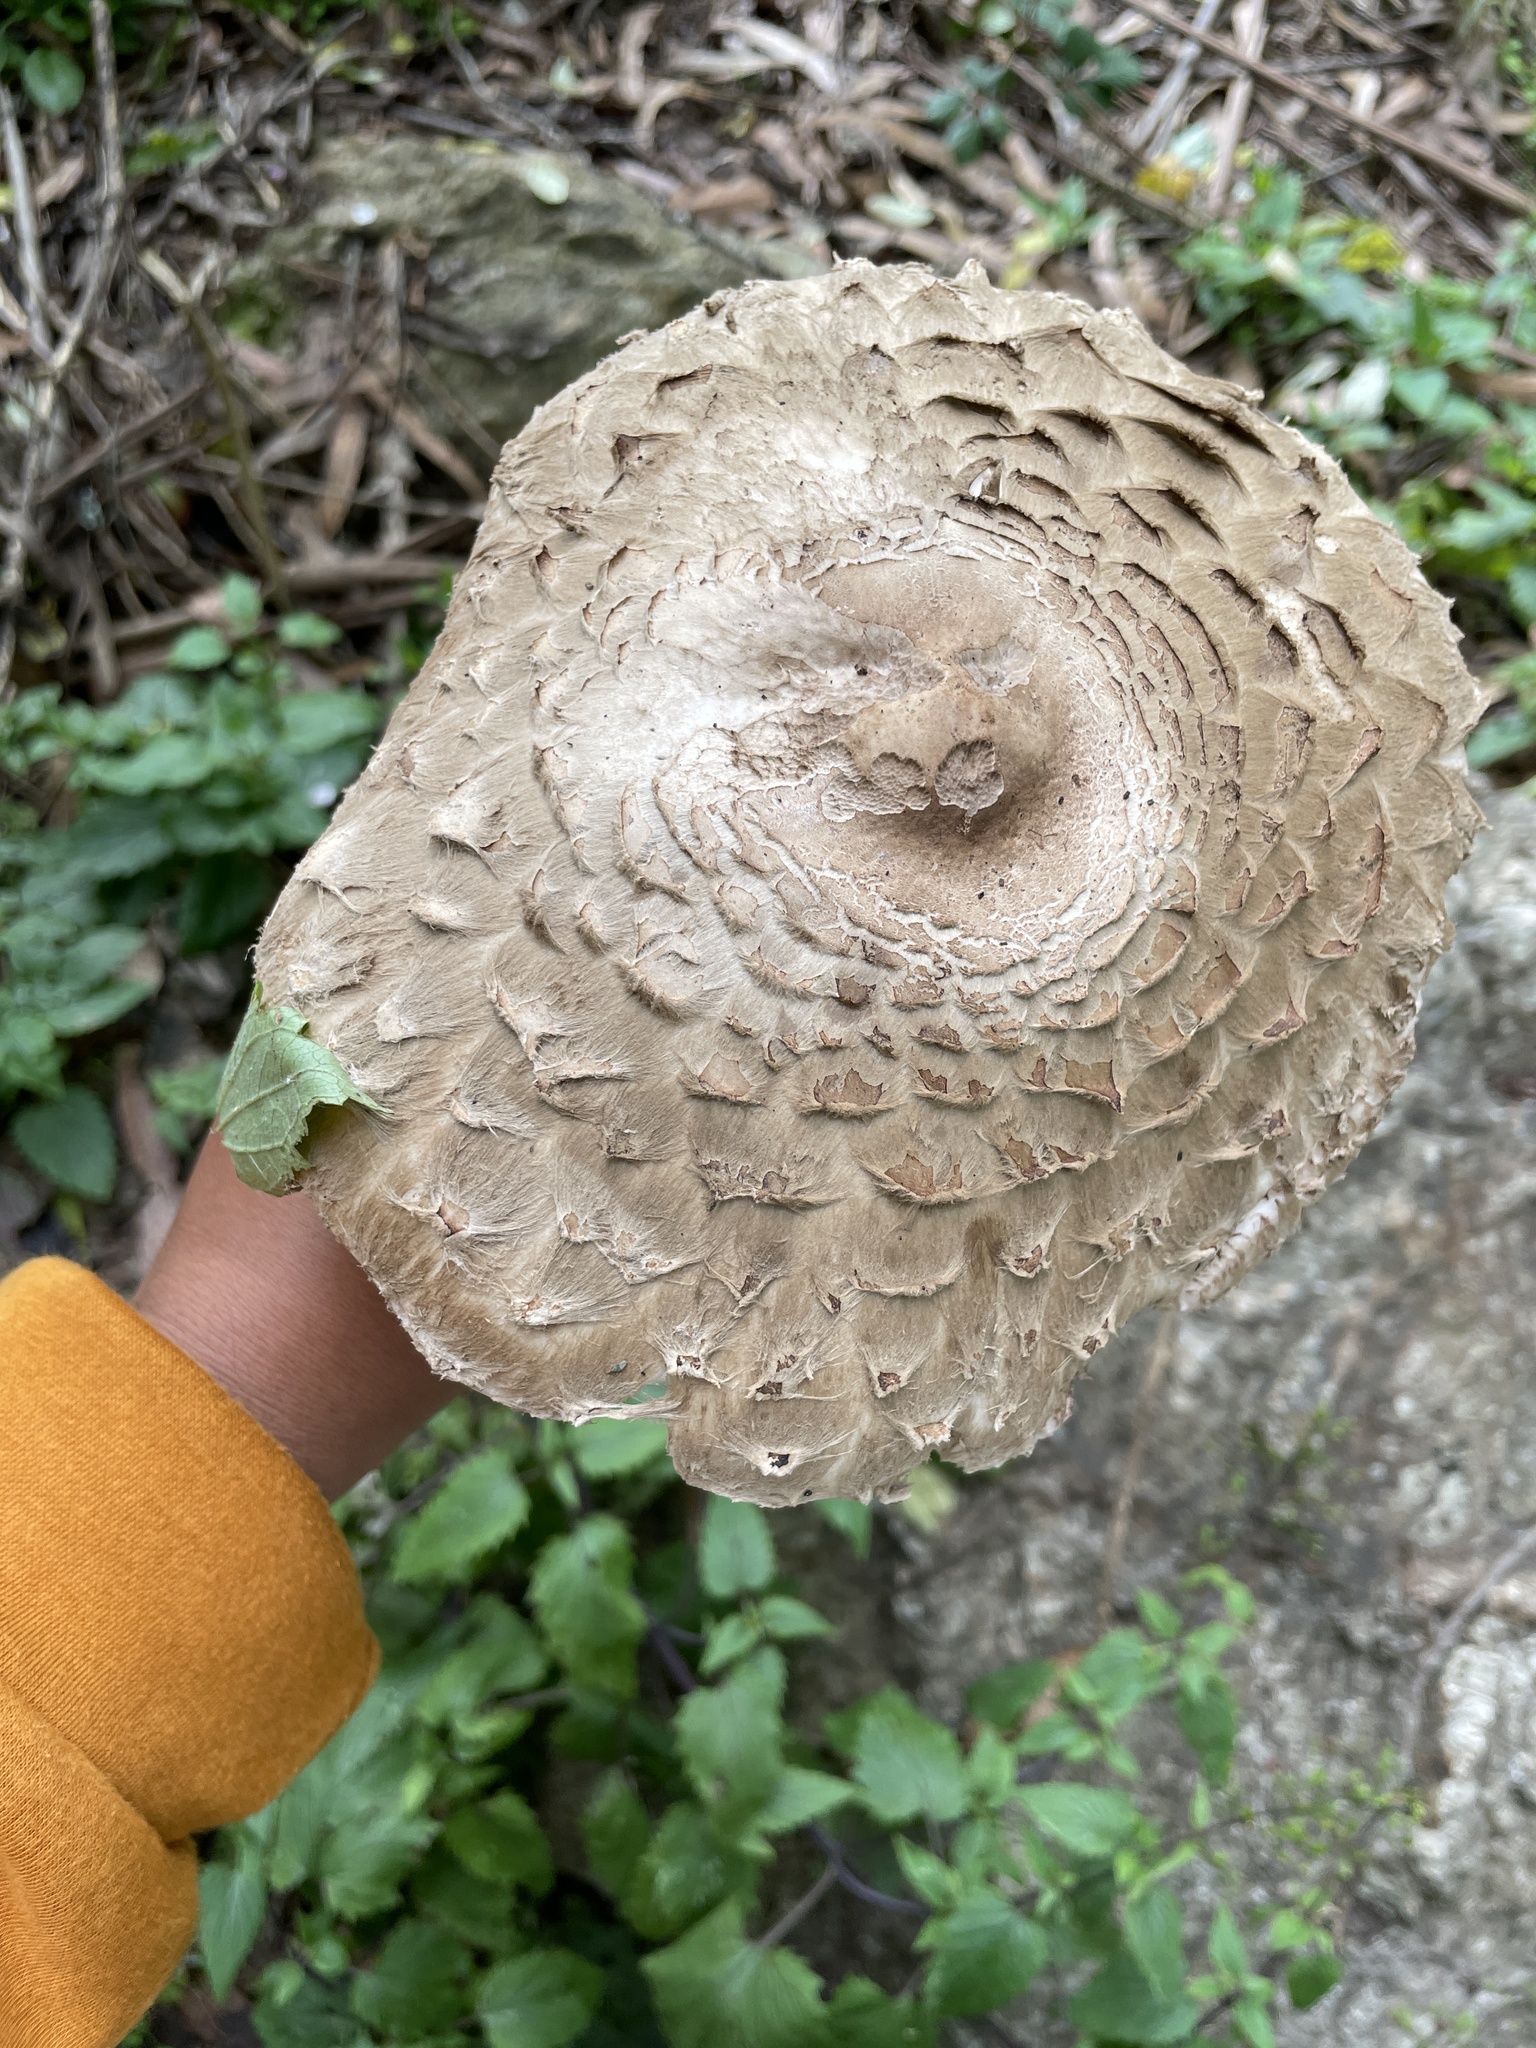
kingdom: Fungi
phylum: Basidiomycota
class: Agaricomycetes
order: Agaricales
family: Agaricaceae
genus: Chlorophyllum
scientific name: Chlorophyllum brunneum
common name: Brown parasol
